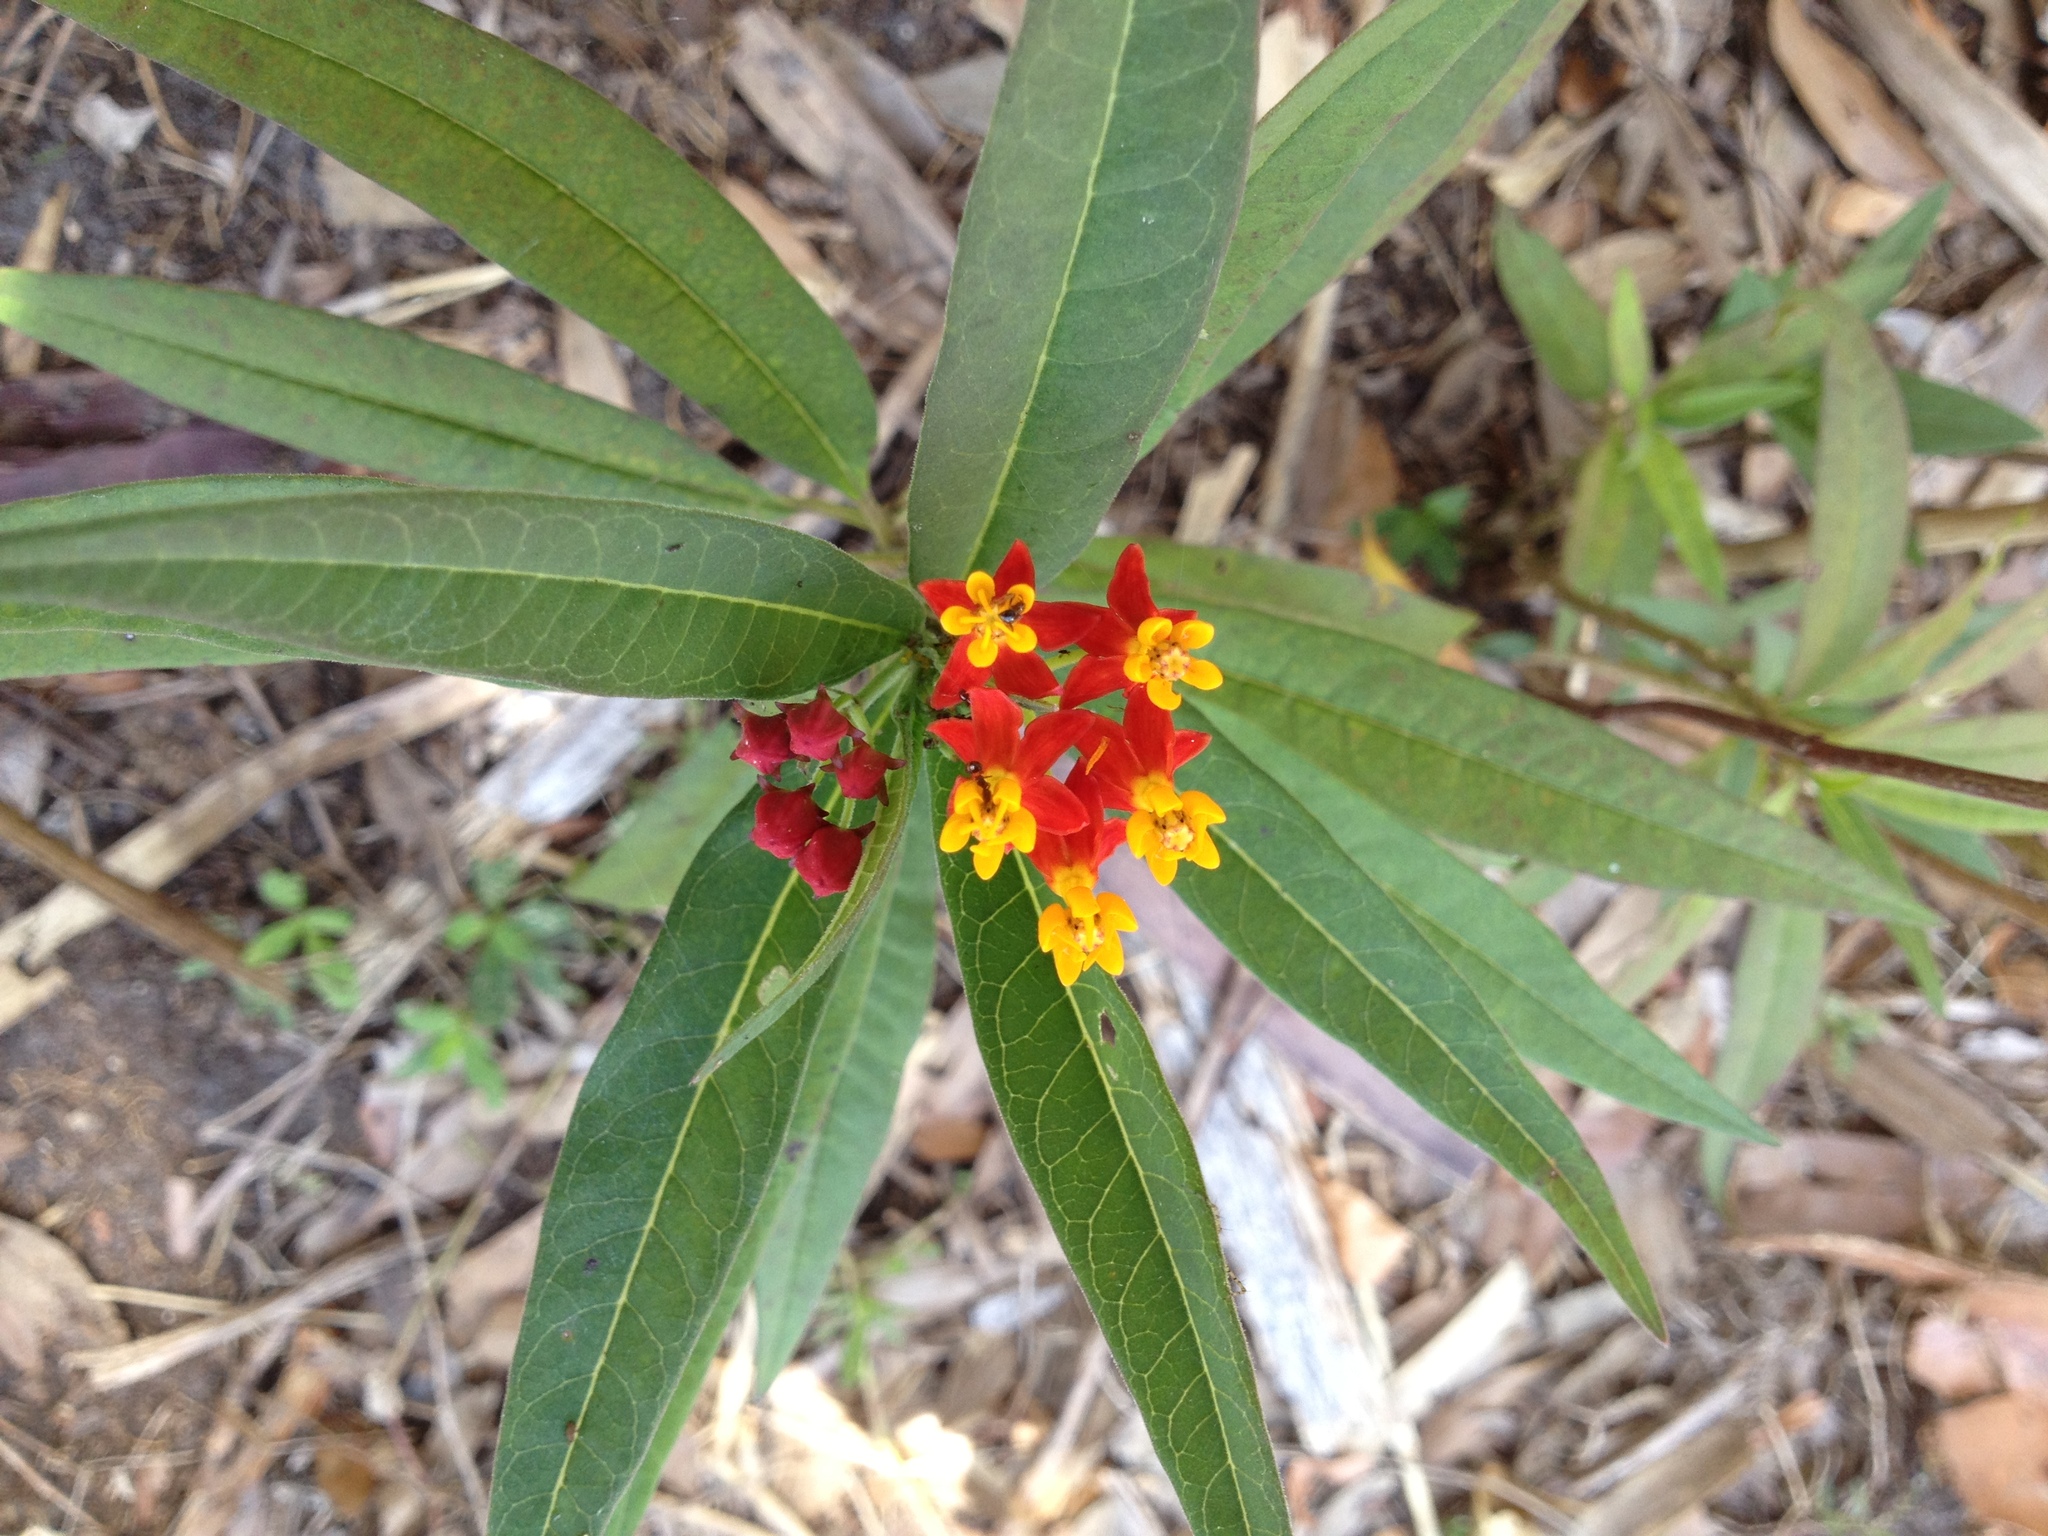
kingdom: Plantae
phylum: Tracheophyta
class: Magnoliopsida
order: Gentianales
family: Apocynaceae
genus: Asclepias
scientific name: Asclepias curassavica
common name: Bloodflower
